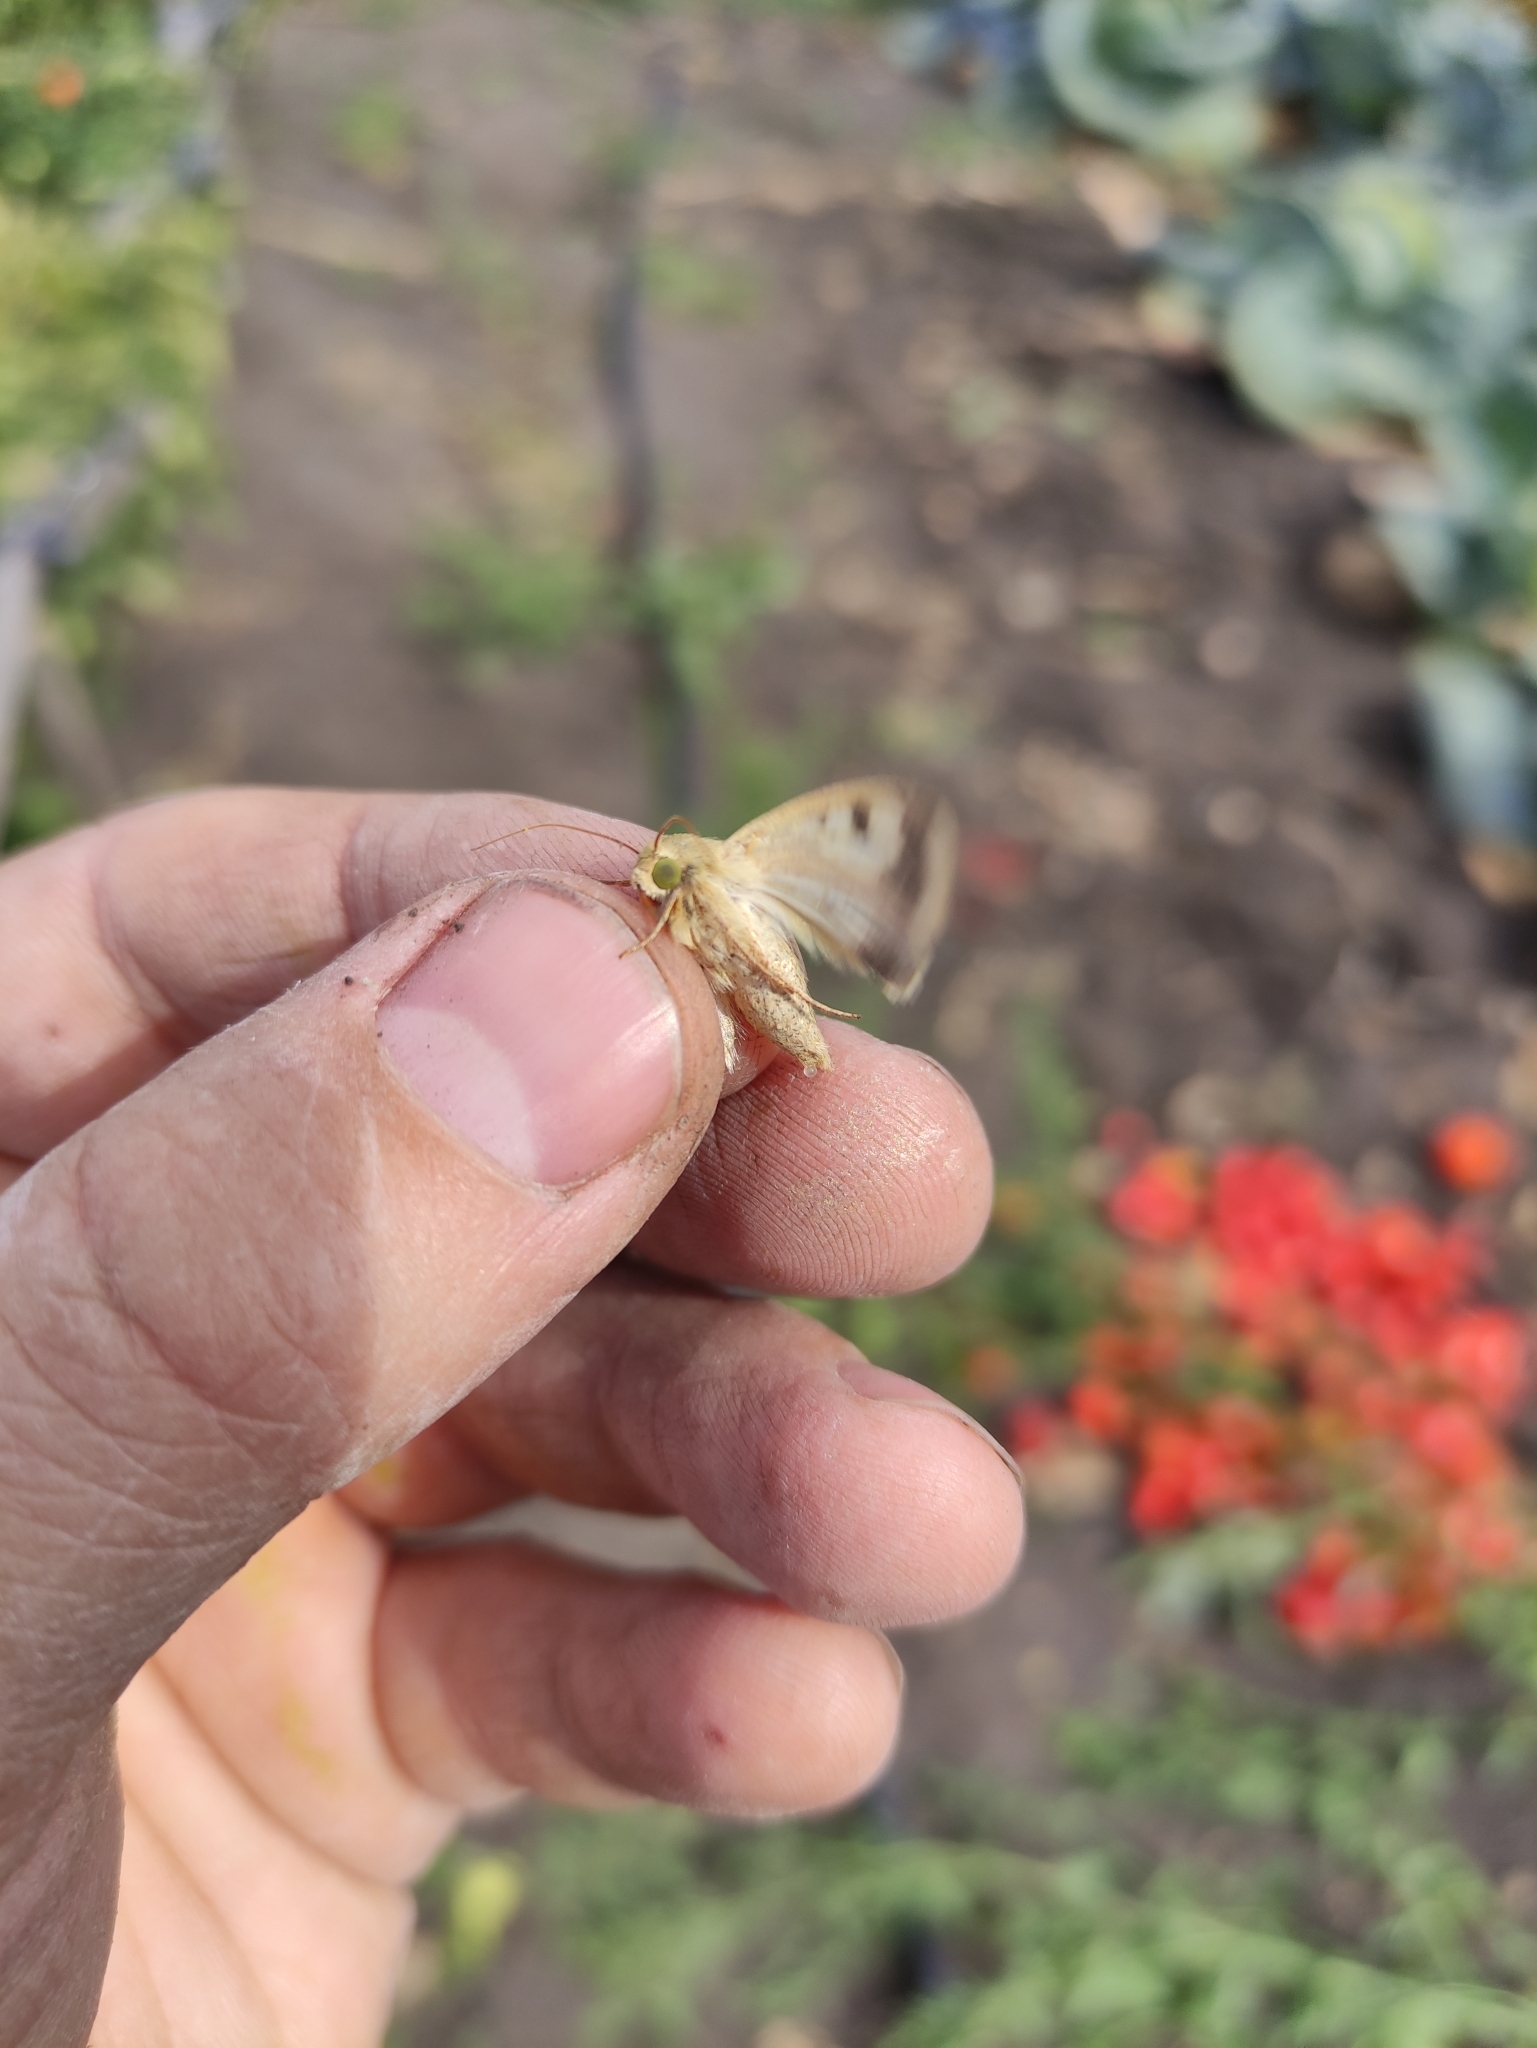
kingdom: Animalia
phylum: Arthropoda
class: Insecta
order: Lepidoptera
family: Noctuidae
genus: Helicoverpa
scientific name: Helicoverpa armigera
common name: Cotton bollworm
